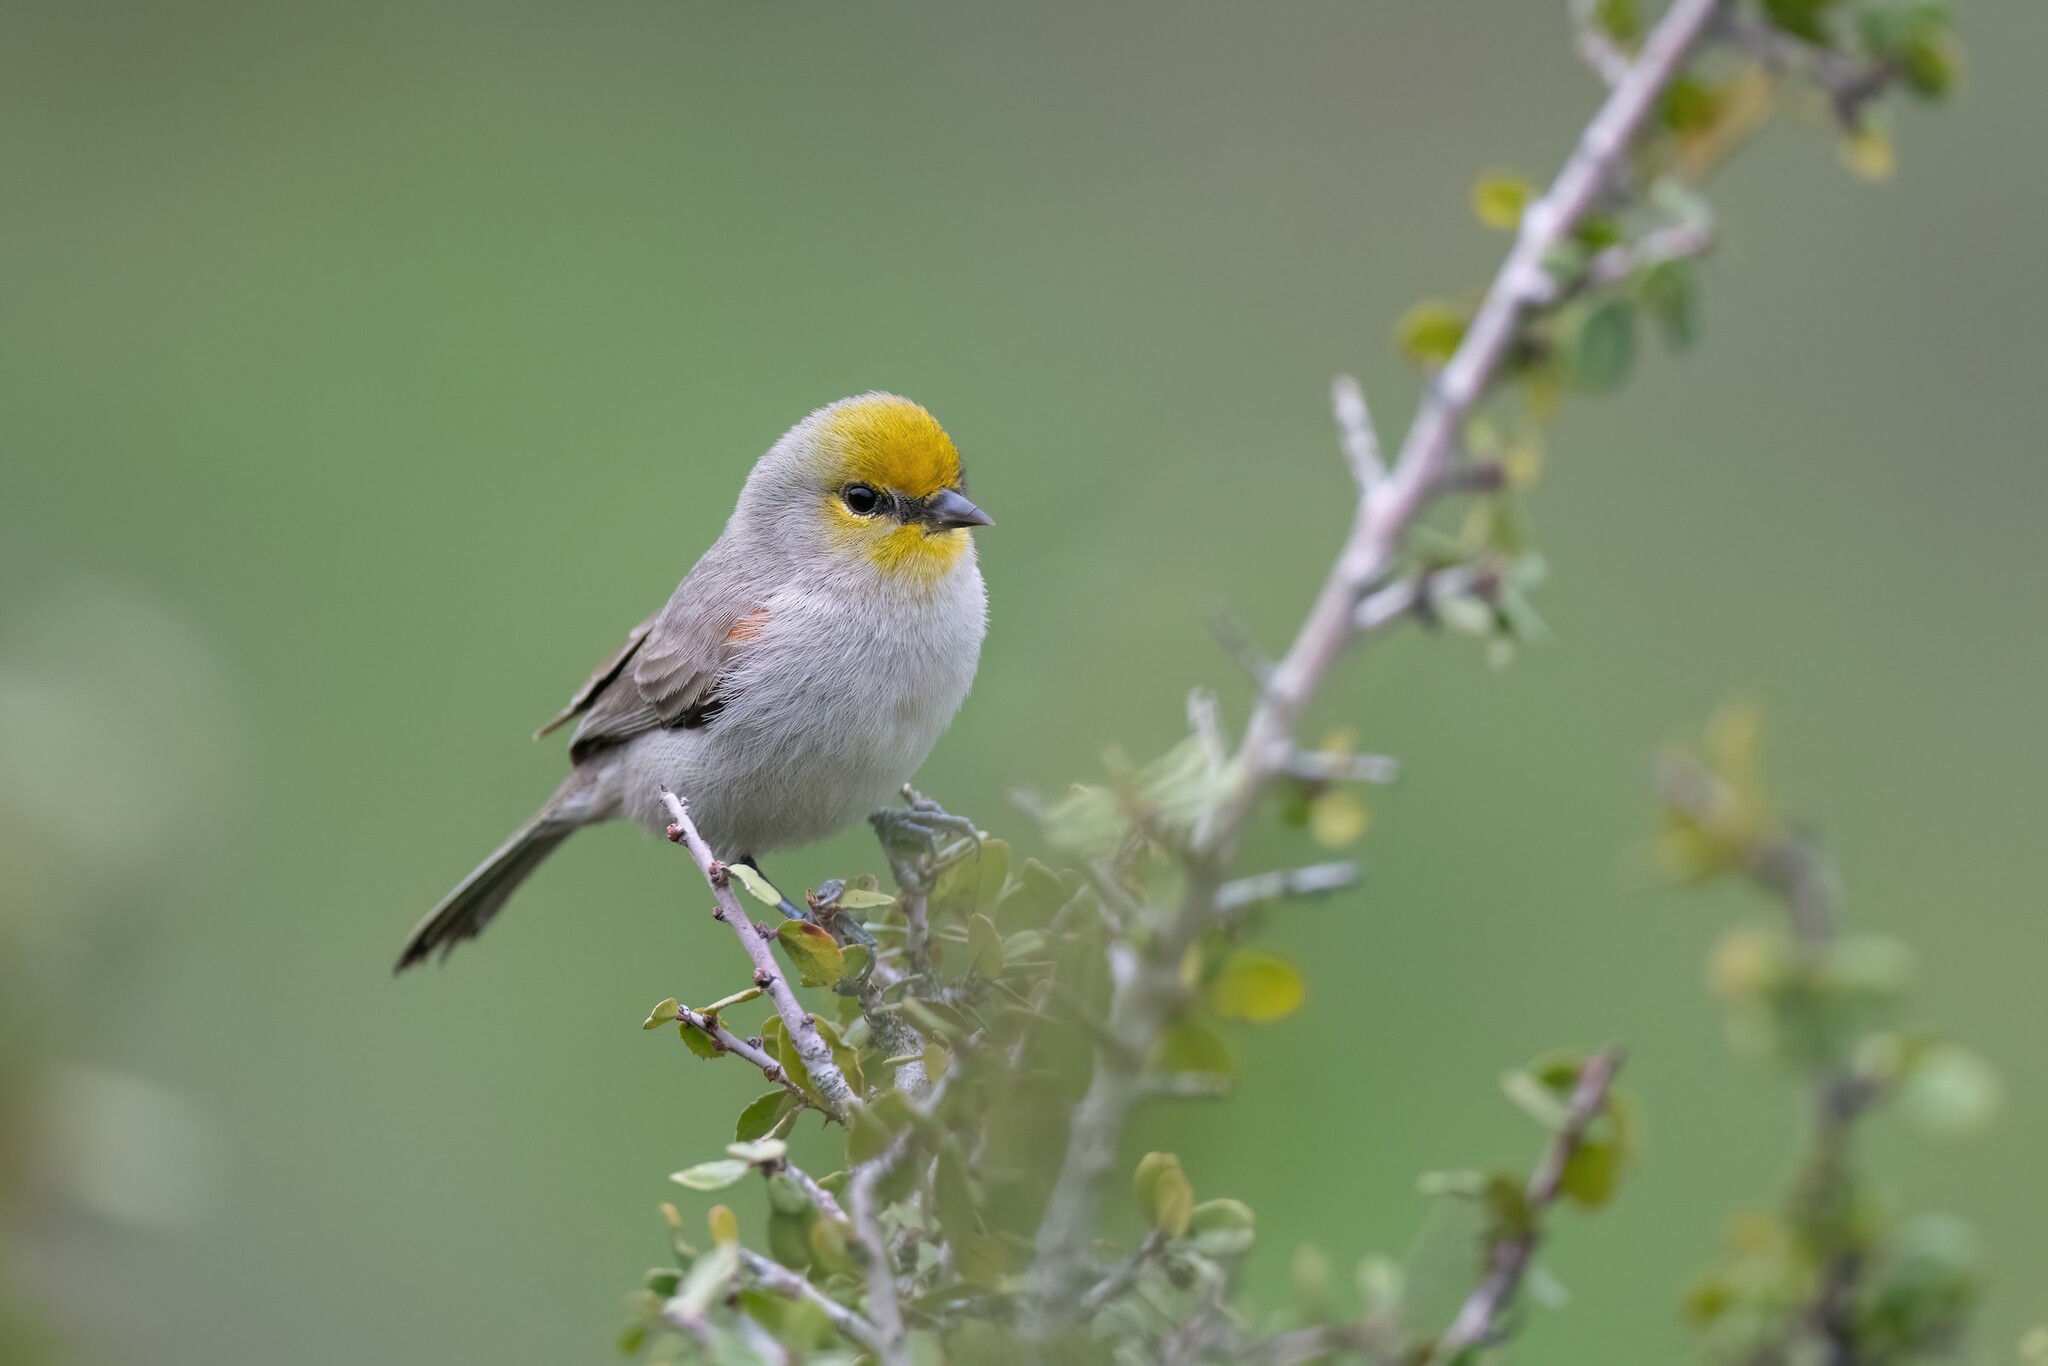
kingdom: Animalia
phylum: Chordata
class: Aves
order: Passeriformes
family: Remizidae
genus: Auriparus
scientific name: Auriparus flaviceps
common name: Verdin
